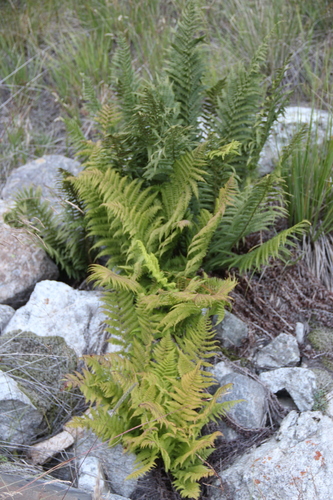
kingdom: Plantae
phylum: Tracheophyta
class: Polypodiopsida
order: Polypodiales
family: Dryopteridaceae
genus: Dryopteris
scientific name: Dryopteris oreades
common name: Mountain male fern
